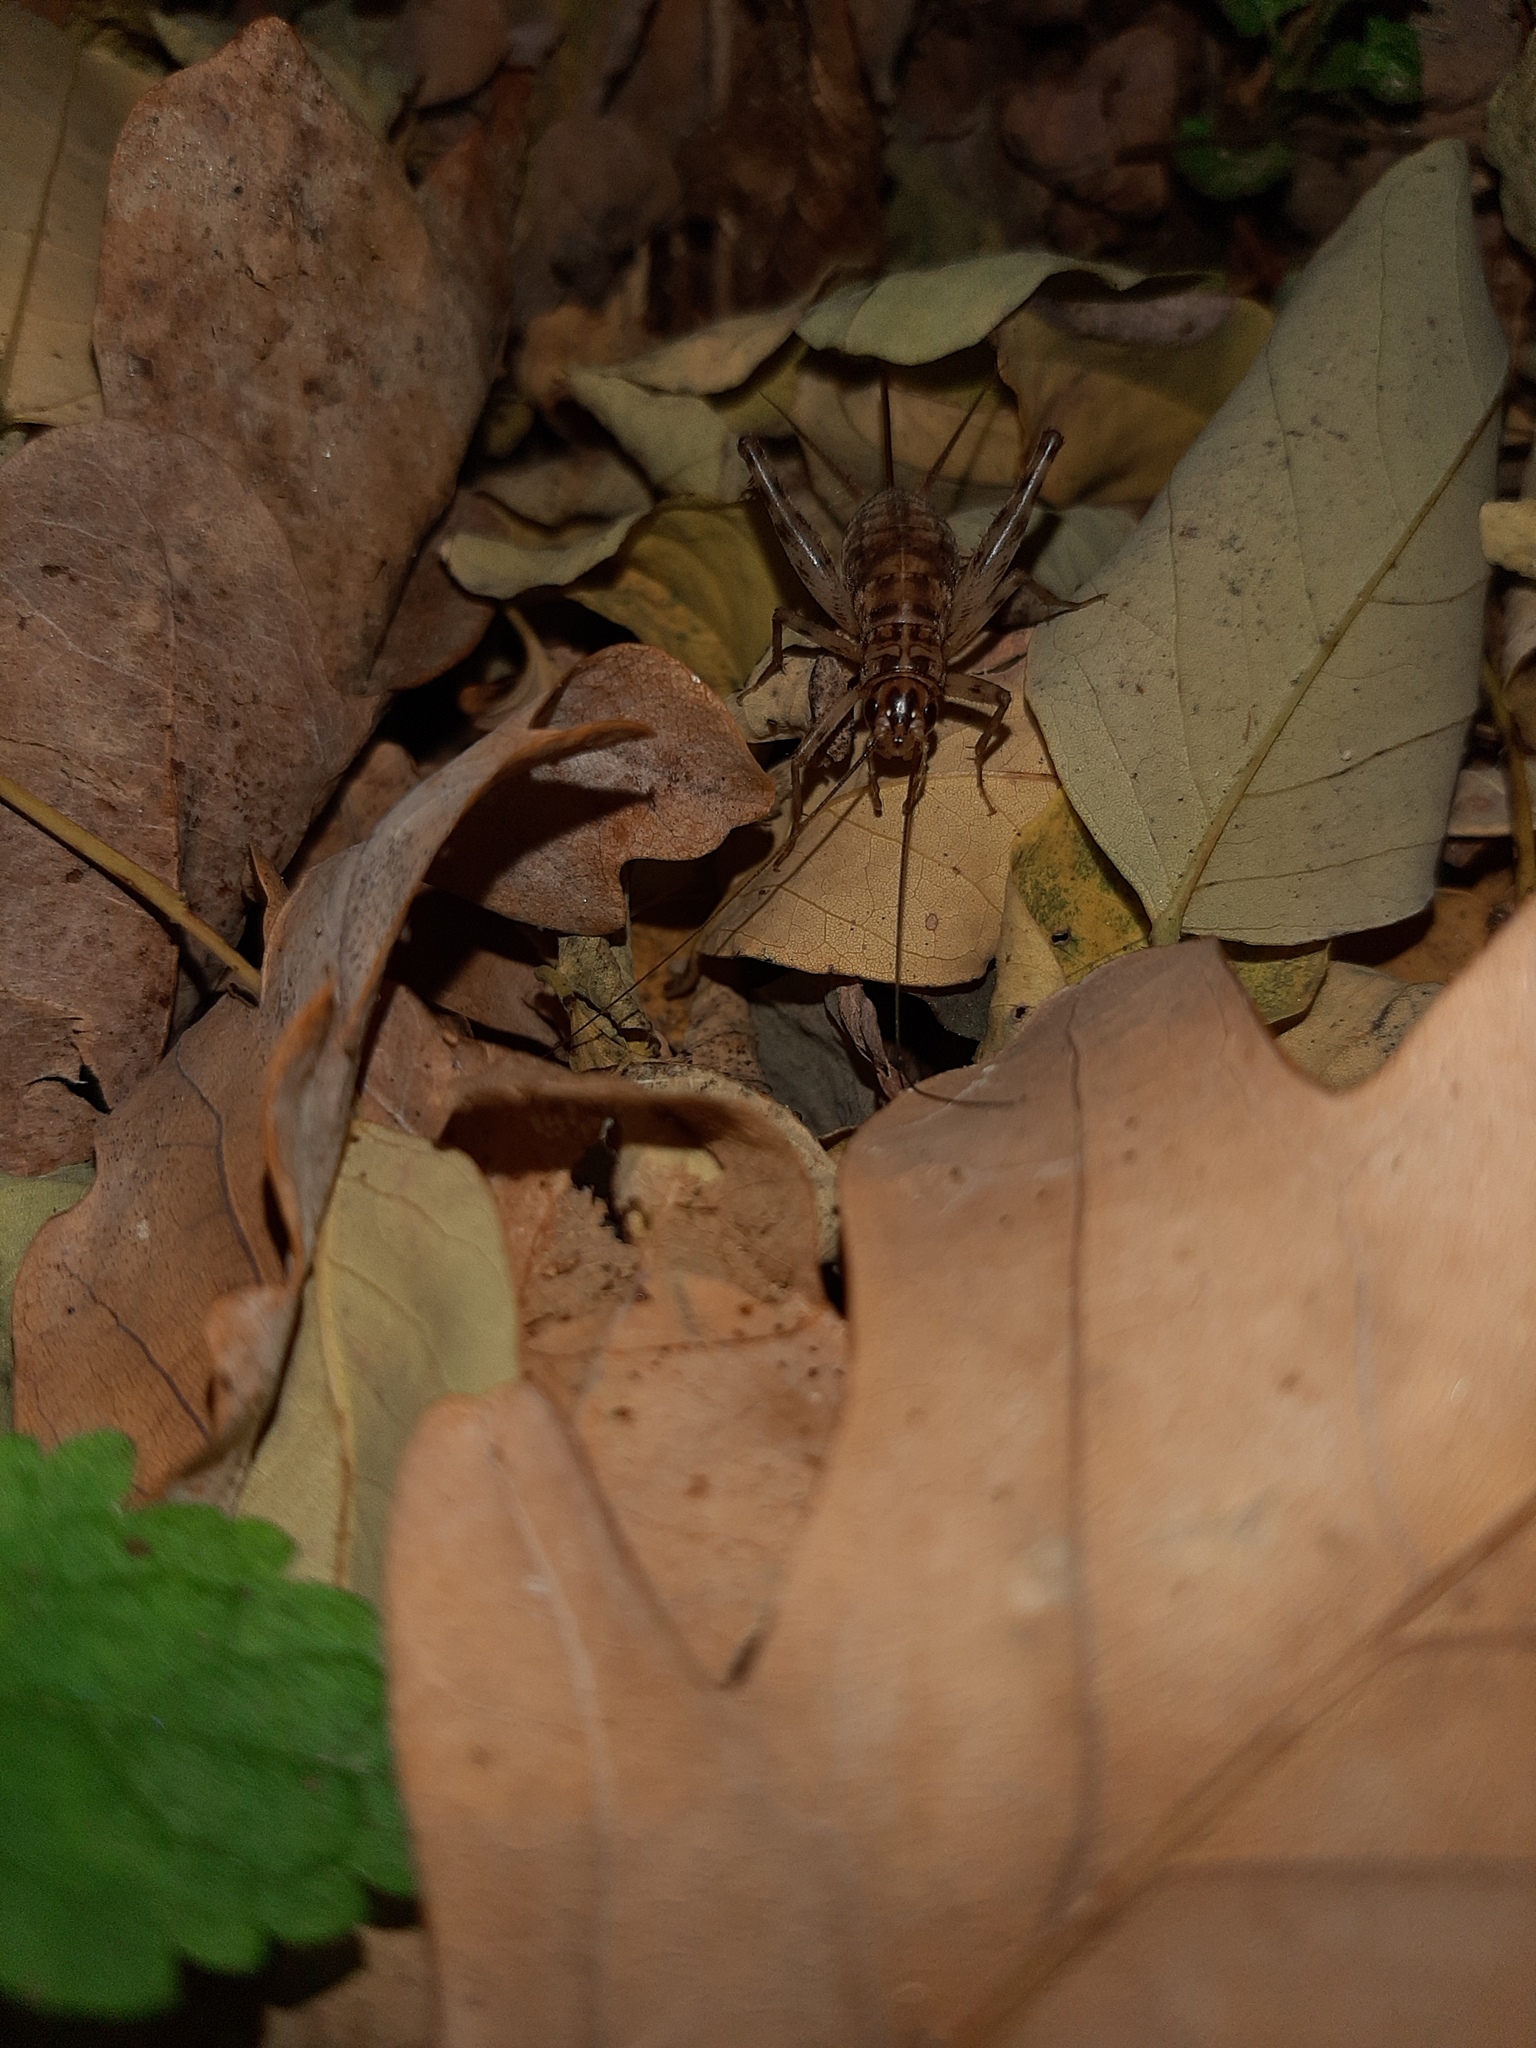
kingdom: Animalia
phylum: Arthropoda
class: Insecta
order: Orthoptera
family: Gryllidae
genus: Gryllomorpha
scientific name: Gryllomorpha dalmatina
